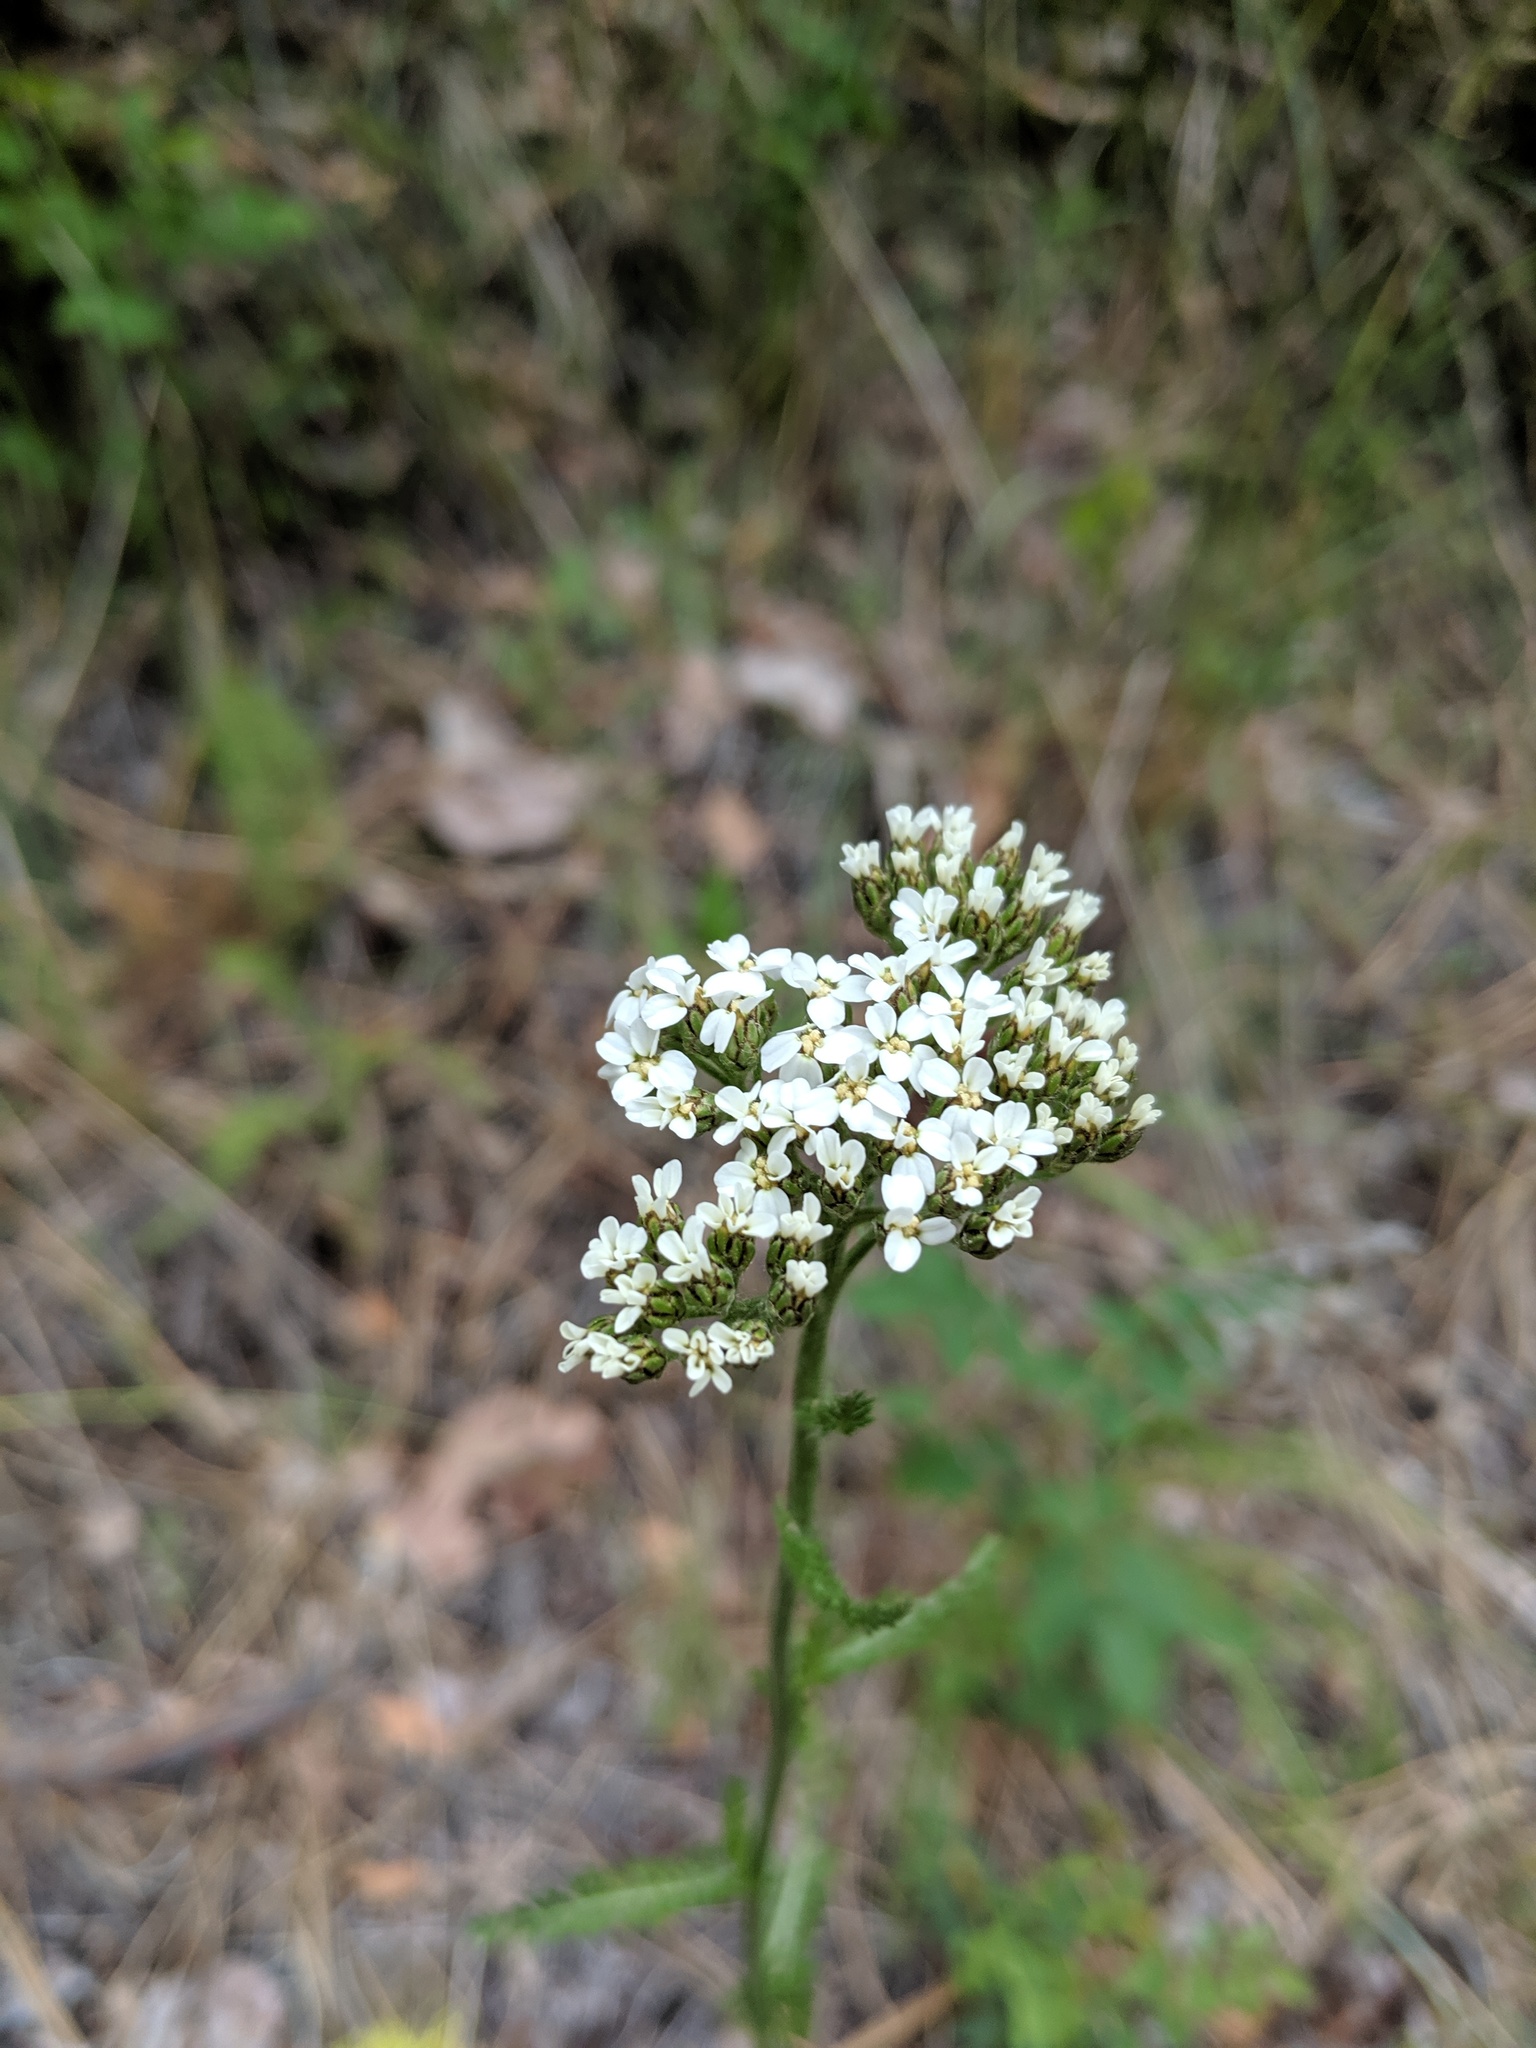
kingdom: Plantae
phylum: Tracheophyta
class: Magnoliopsida
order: Asterales
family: Asteraceae
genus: Achillea
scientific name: Achillea millefolium
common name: Yarrow
